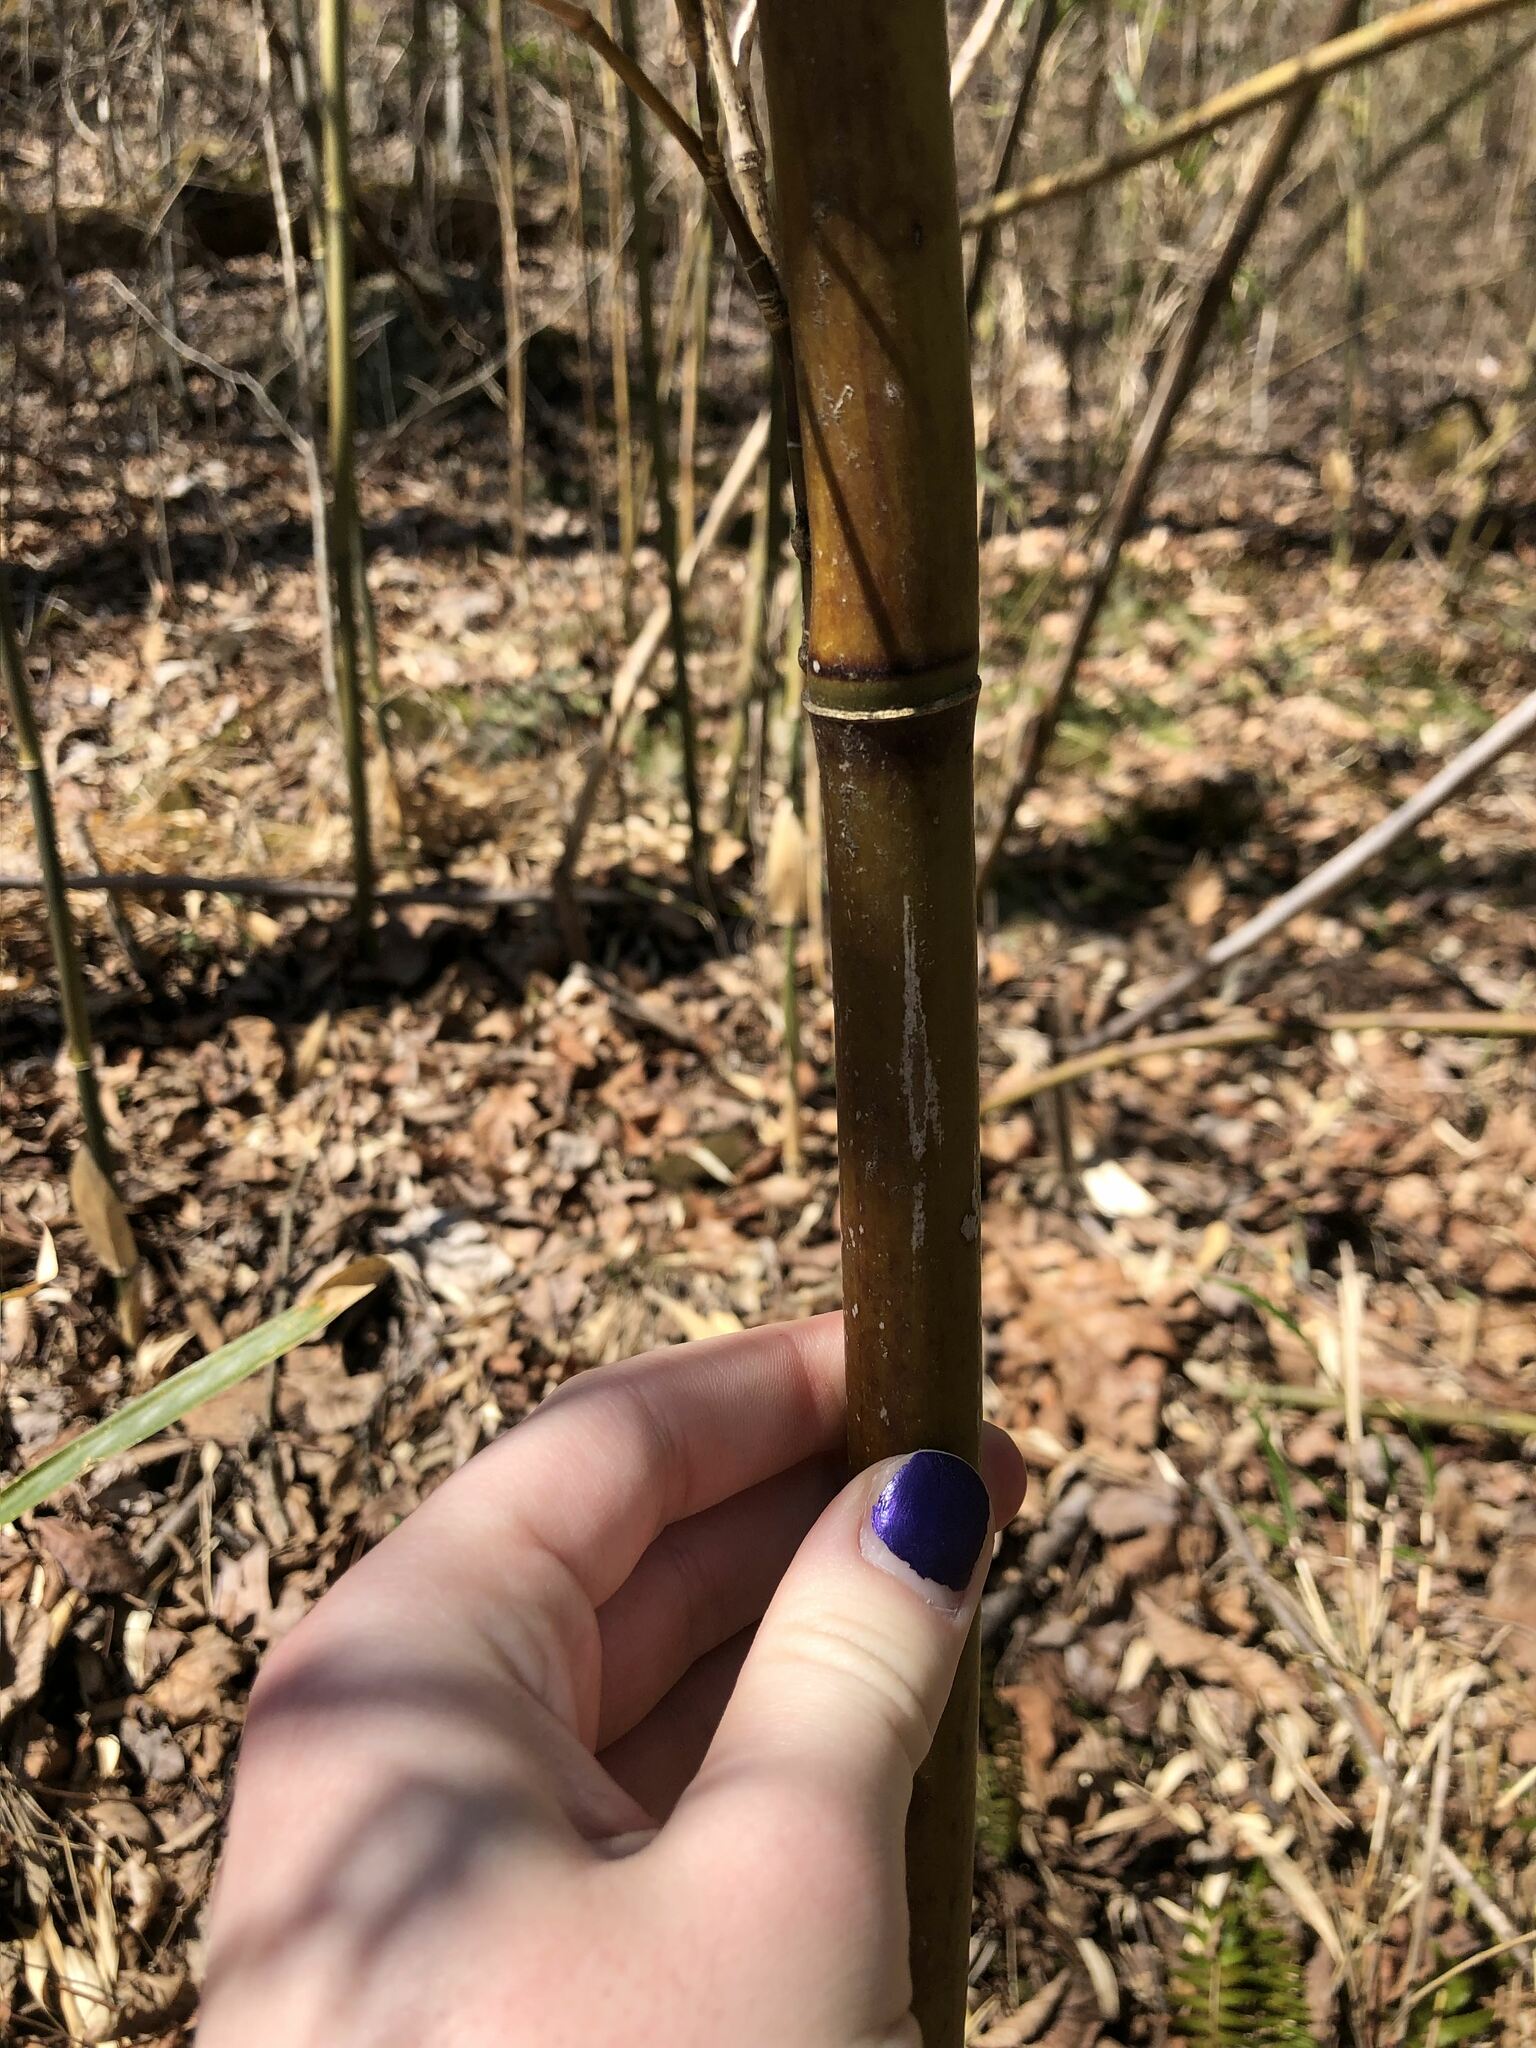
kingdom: Plantae
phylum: Tracheophyta
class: Liliopsida
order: Poales
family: Poaceae
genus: Arundinaria
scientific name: Arundinaria gigantea
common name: Giant cane
